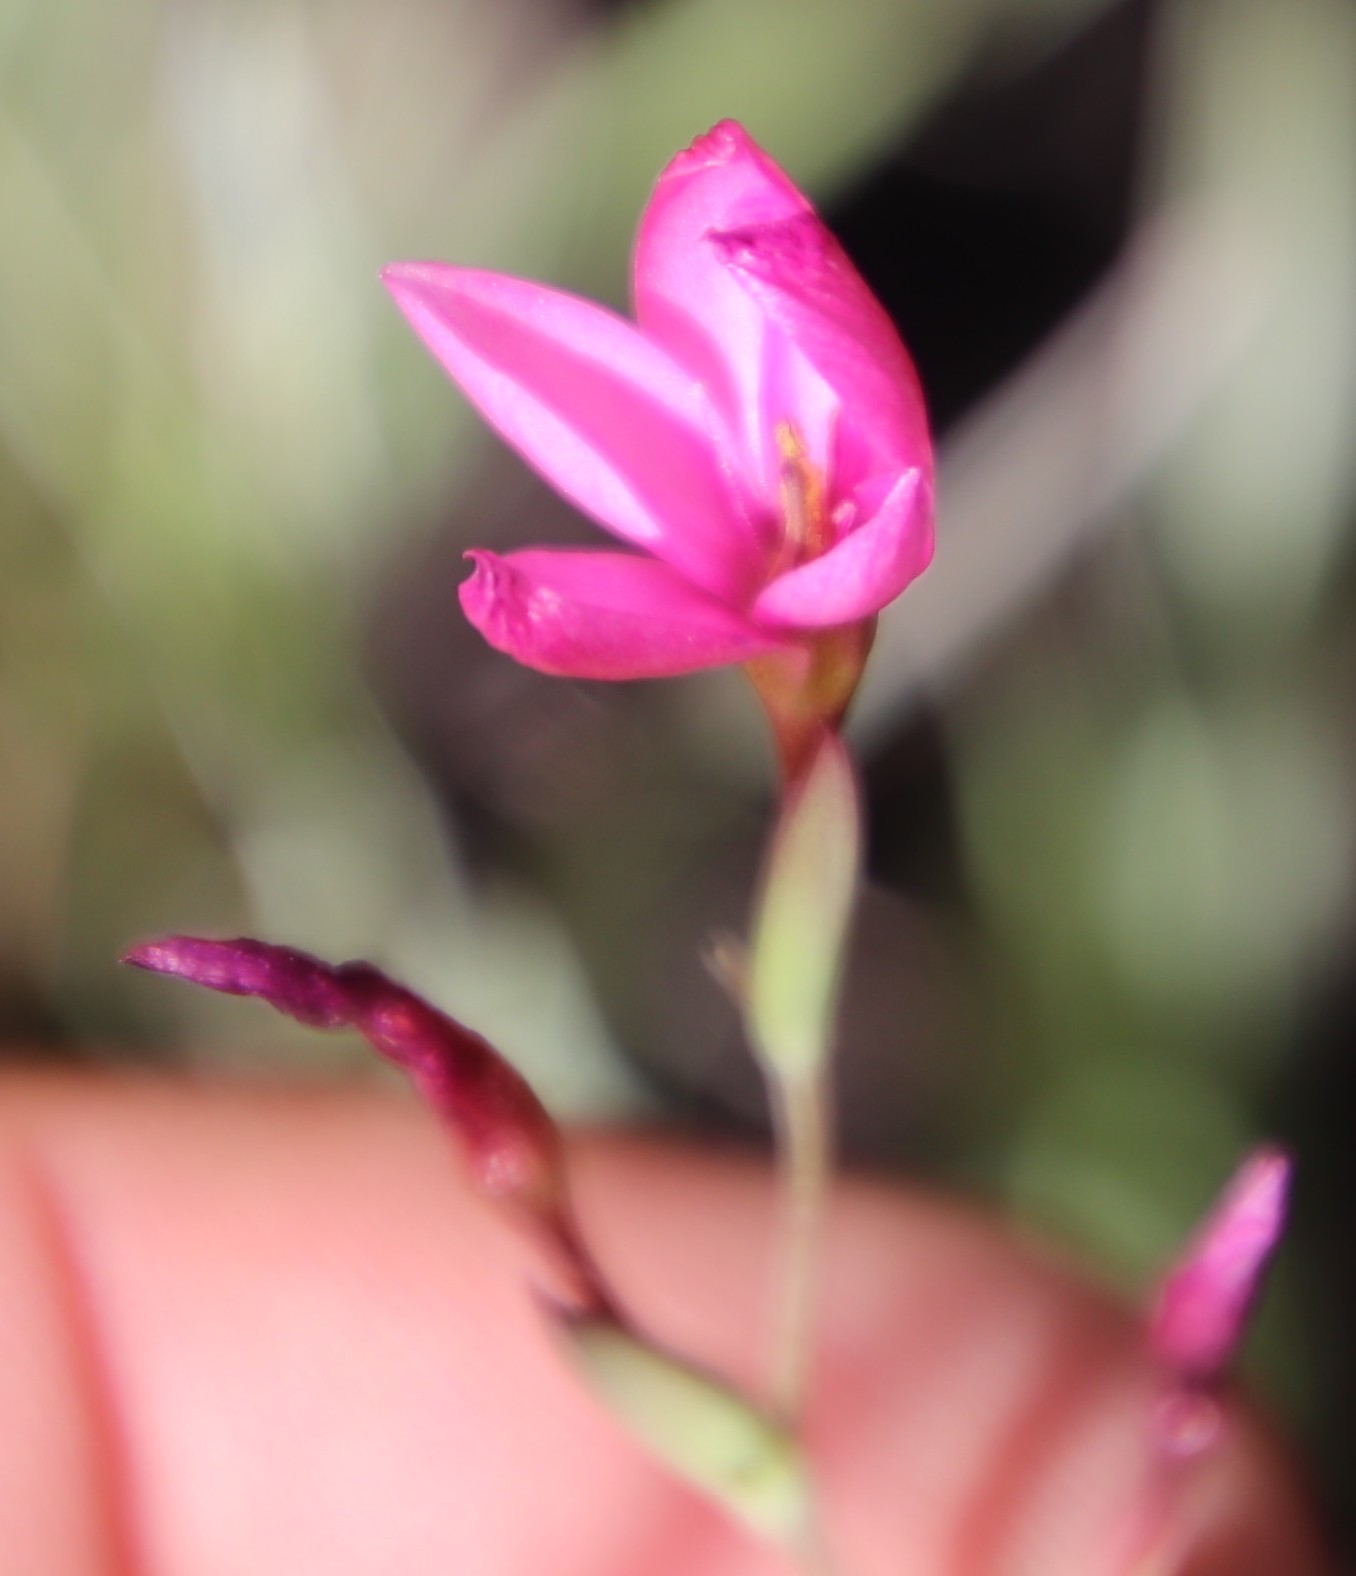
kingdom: Plantae
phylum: Tracheophyta
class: Liliopsida
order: Asparagales
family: Iridaceae
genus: Hesperantha
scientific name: Hesperantha scopulosa
